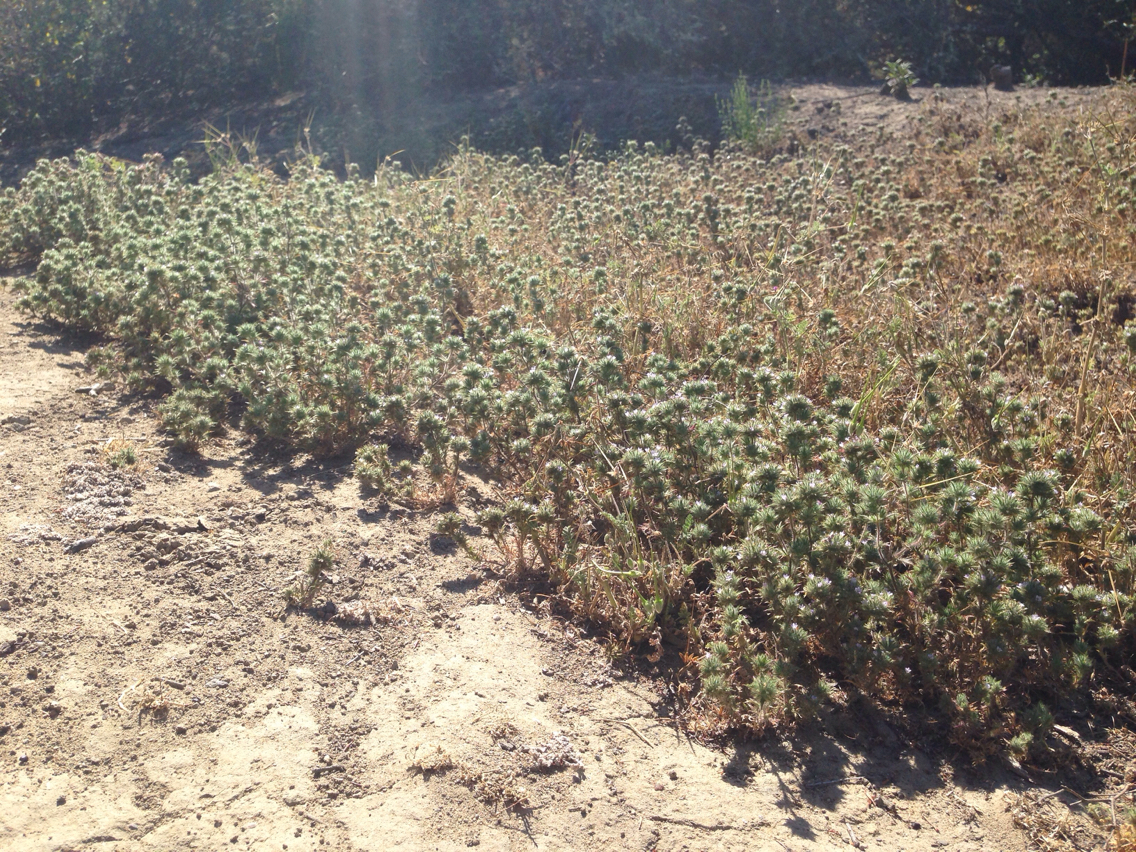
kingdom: Plantae
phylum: Tracheophyta
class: Magnoliopsida
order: Ericales
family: Polemoniaceae
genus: Navarretia
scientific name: Navarretia mellita
